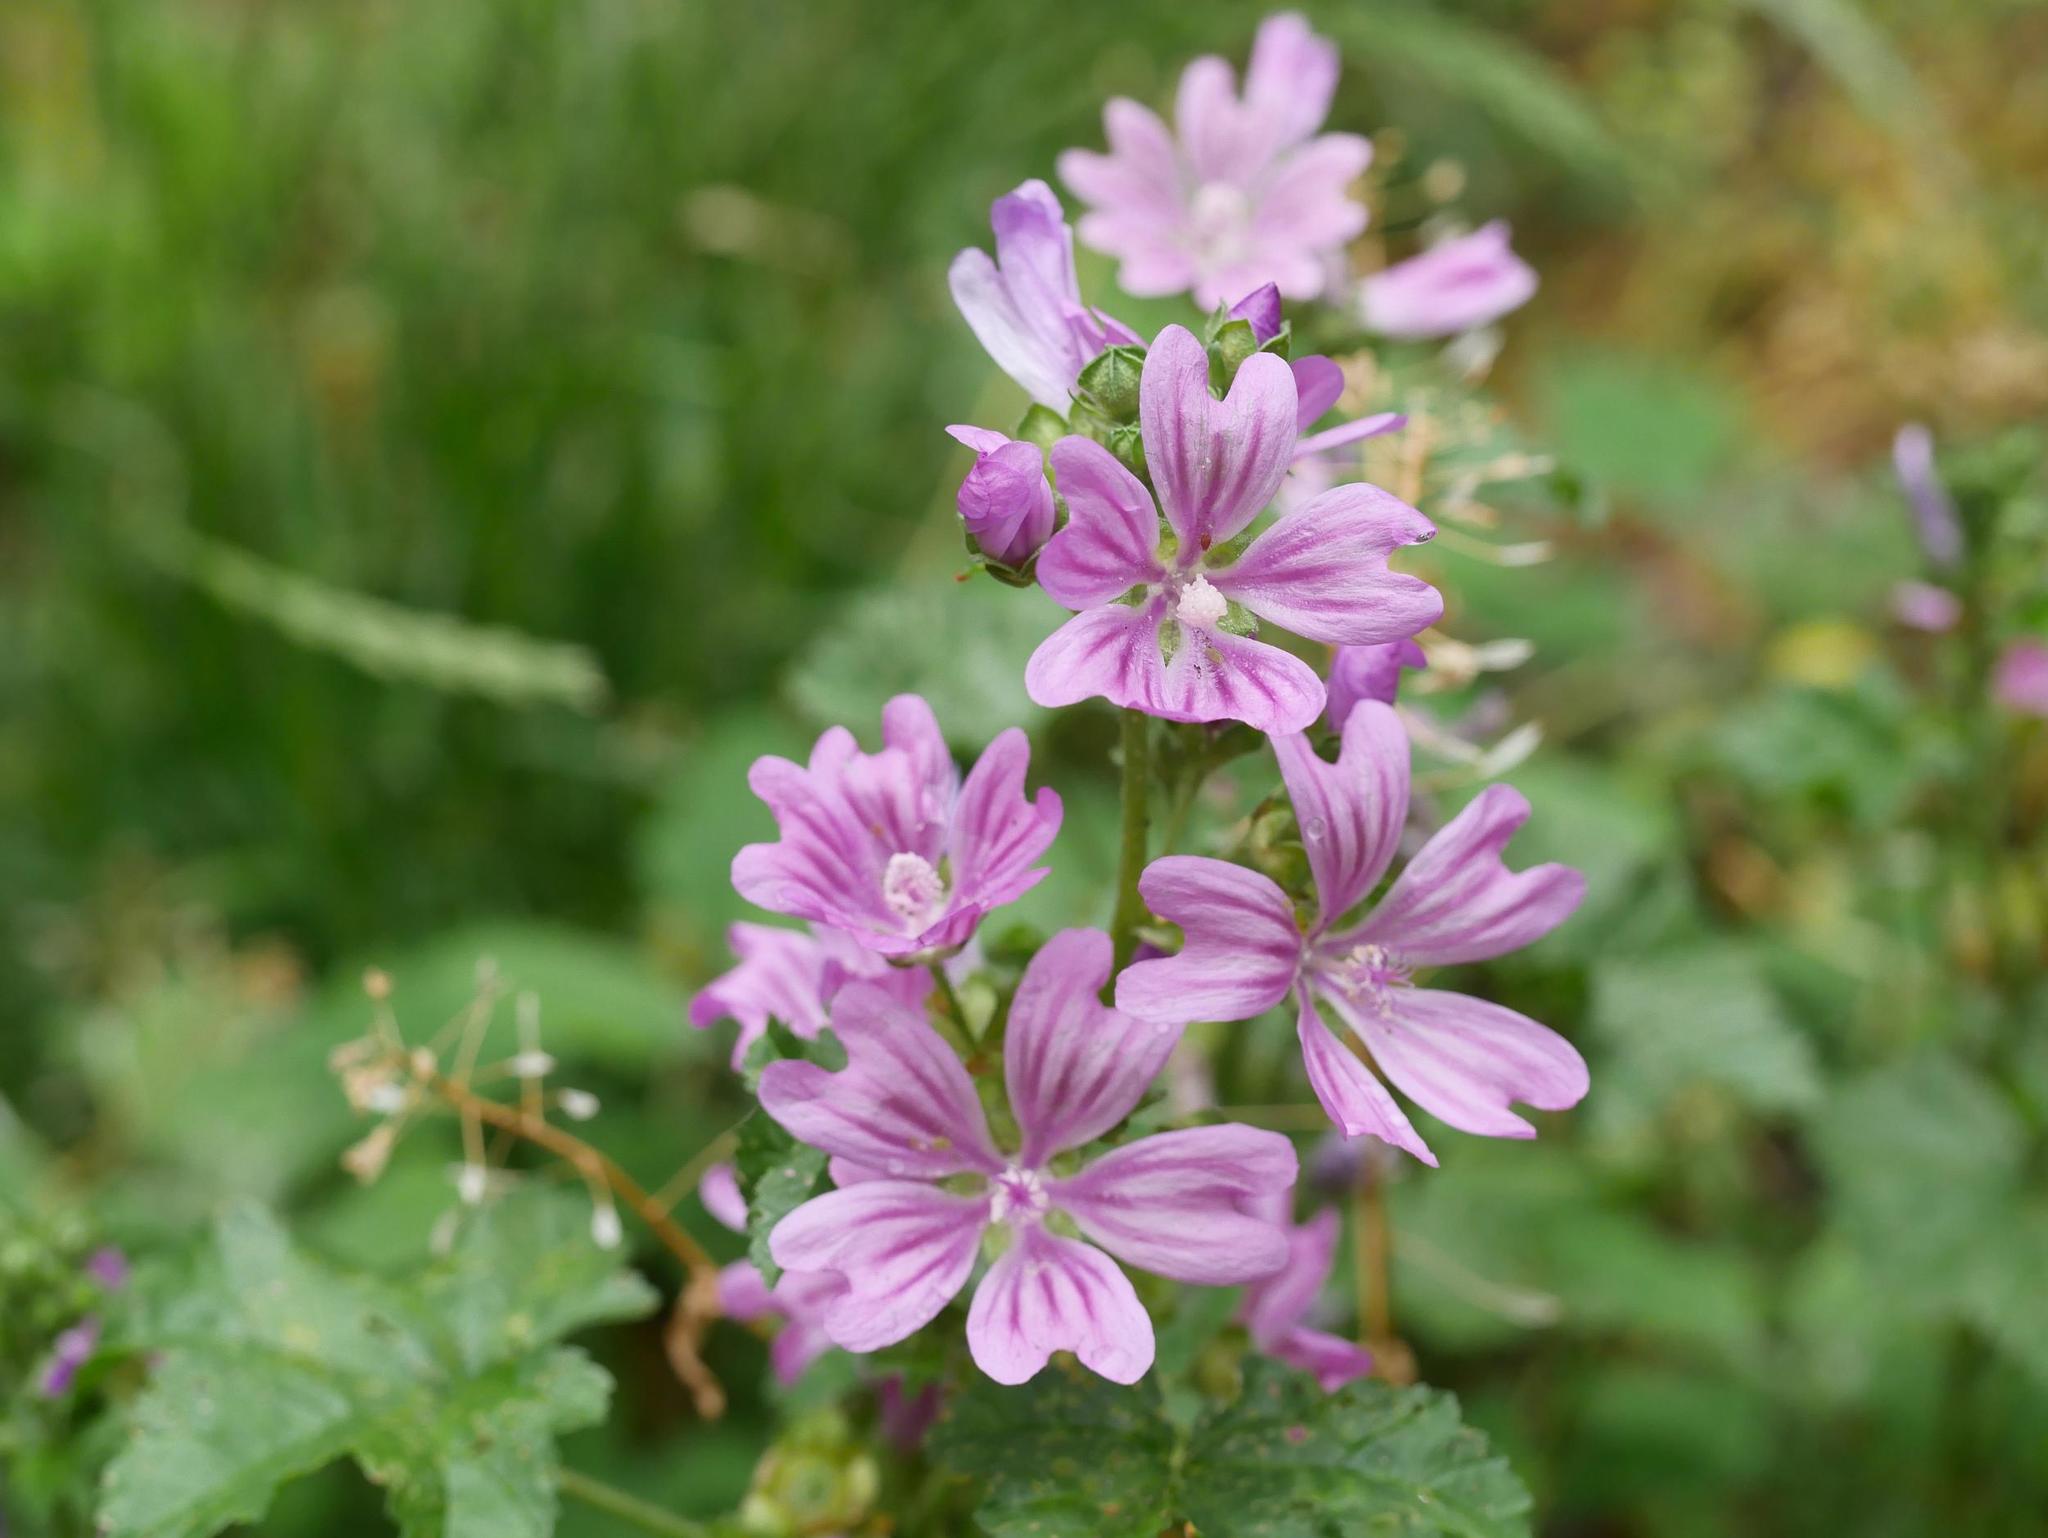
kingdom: Plantae
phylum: Tracheophyta
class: Magnoliopsida
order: Malvales
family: Malvaceae
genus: Malva
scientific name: Malva sylvestris
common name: Common mallow
